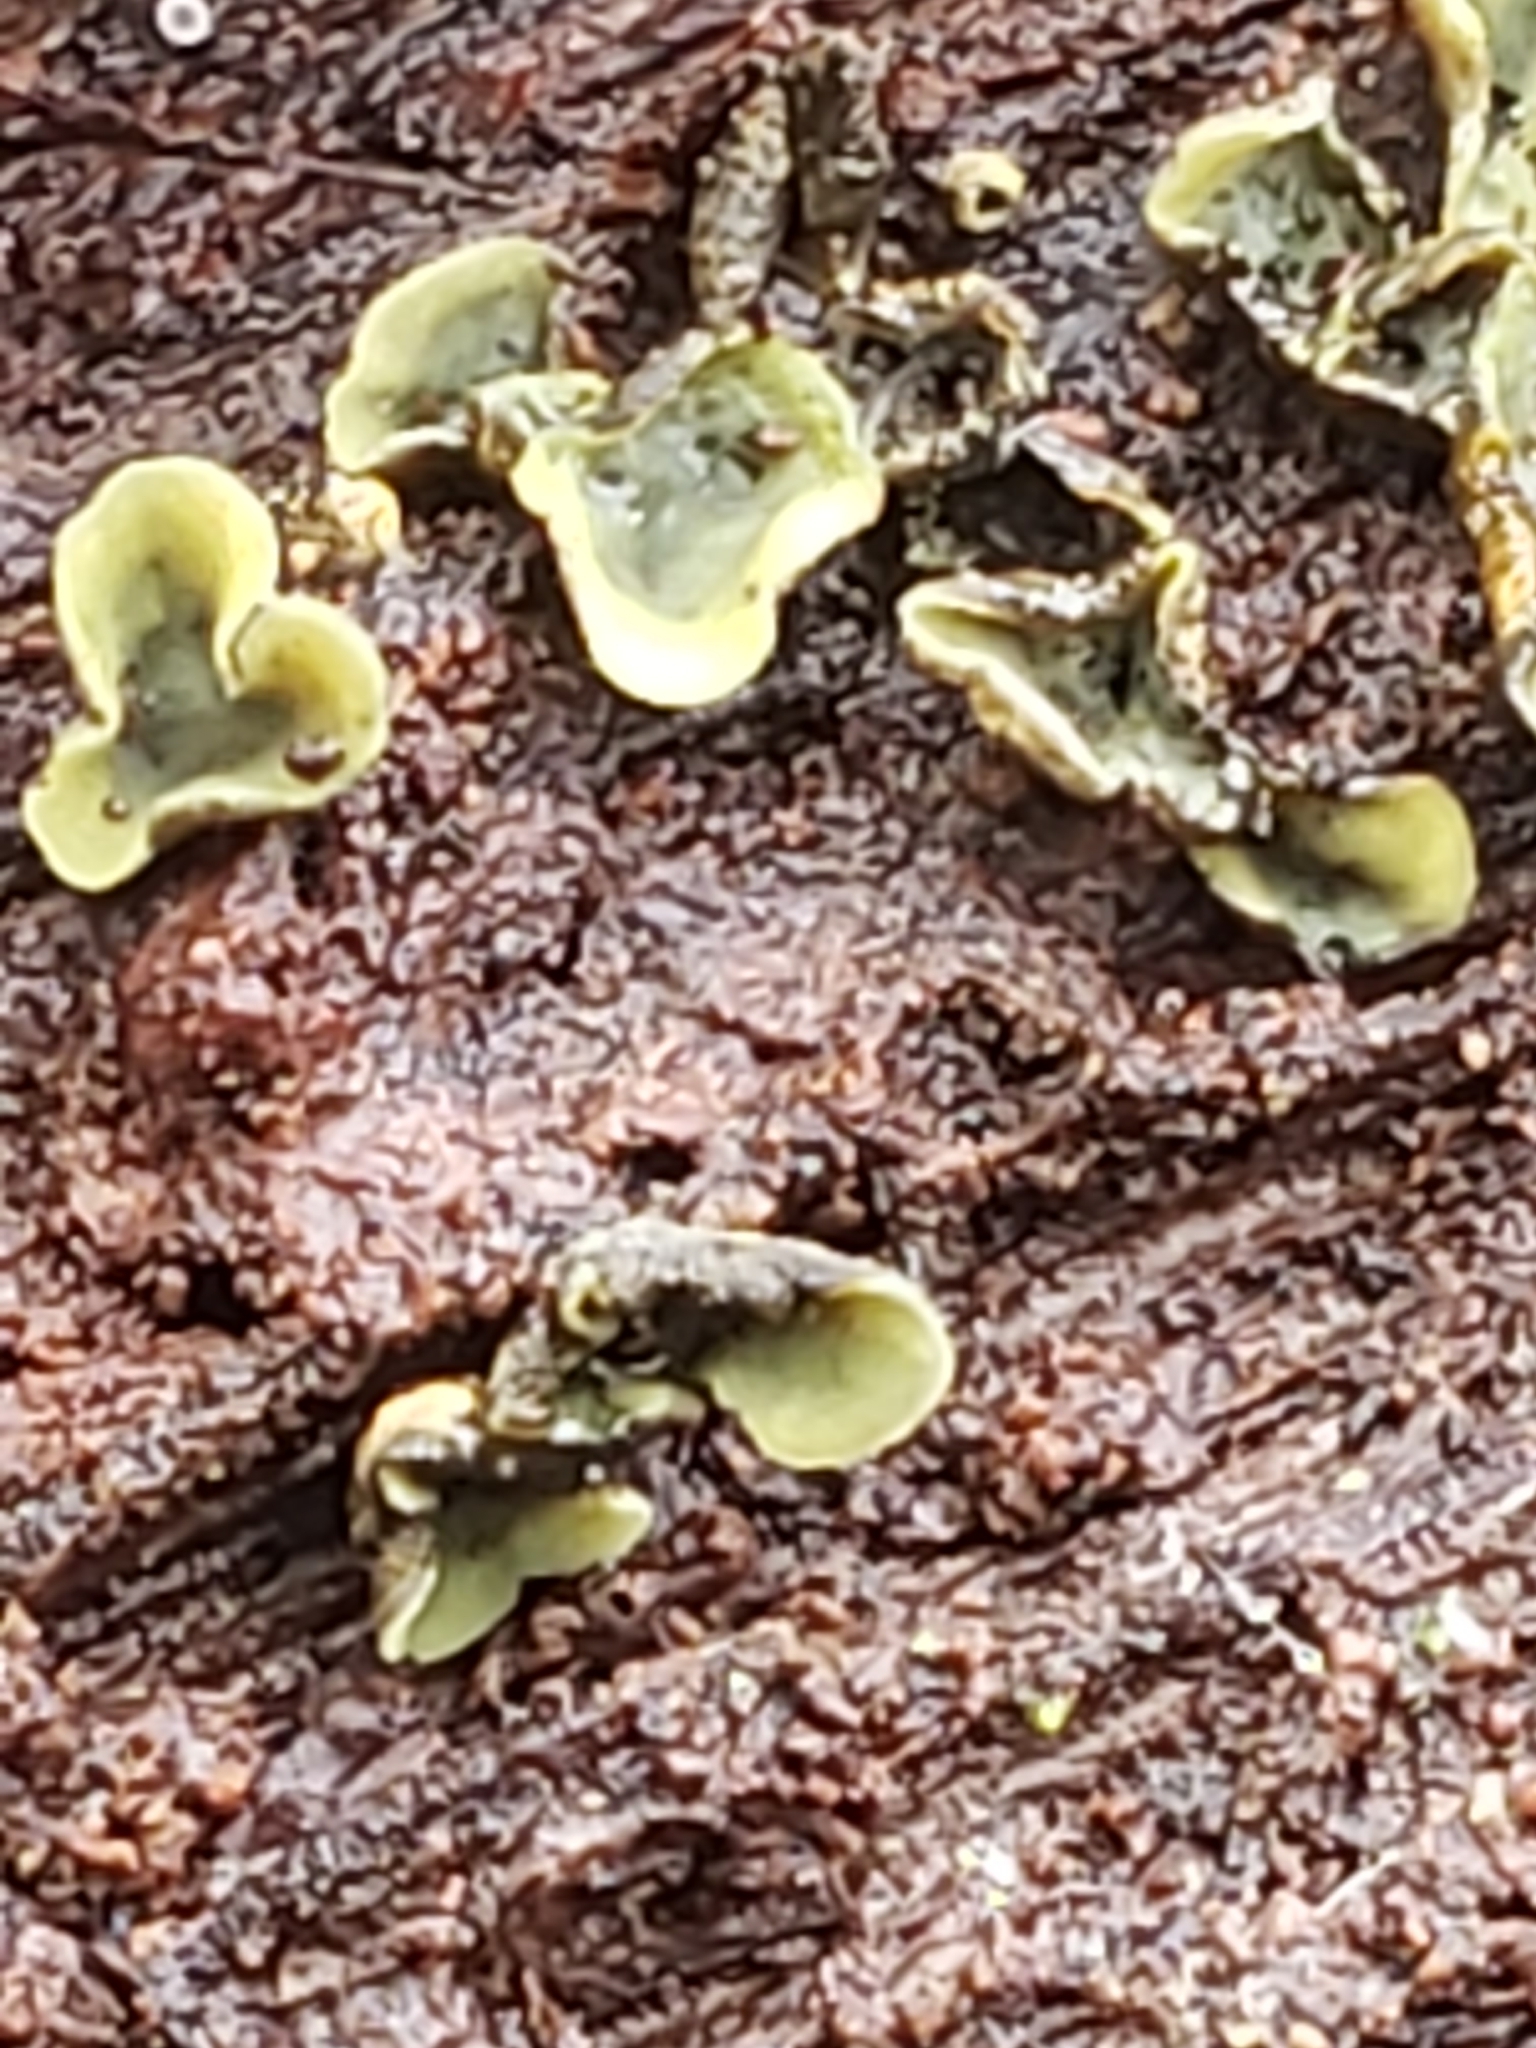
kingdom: Fungi
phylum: Ascomycota
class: Leotiomycetes
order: Helotiales
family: Chlorospleniaceae
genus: Chlorosplenium
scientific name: Chlorosplenium chlora
